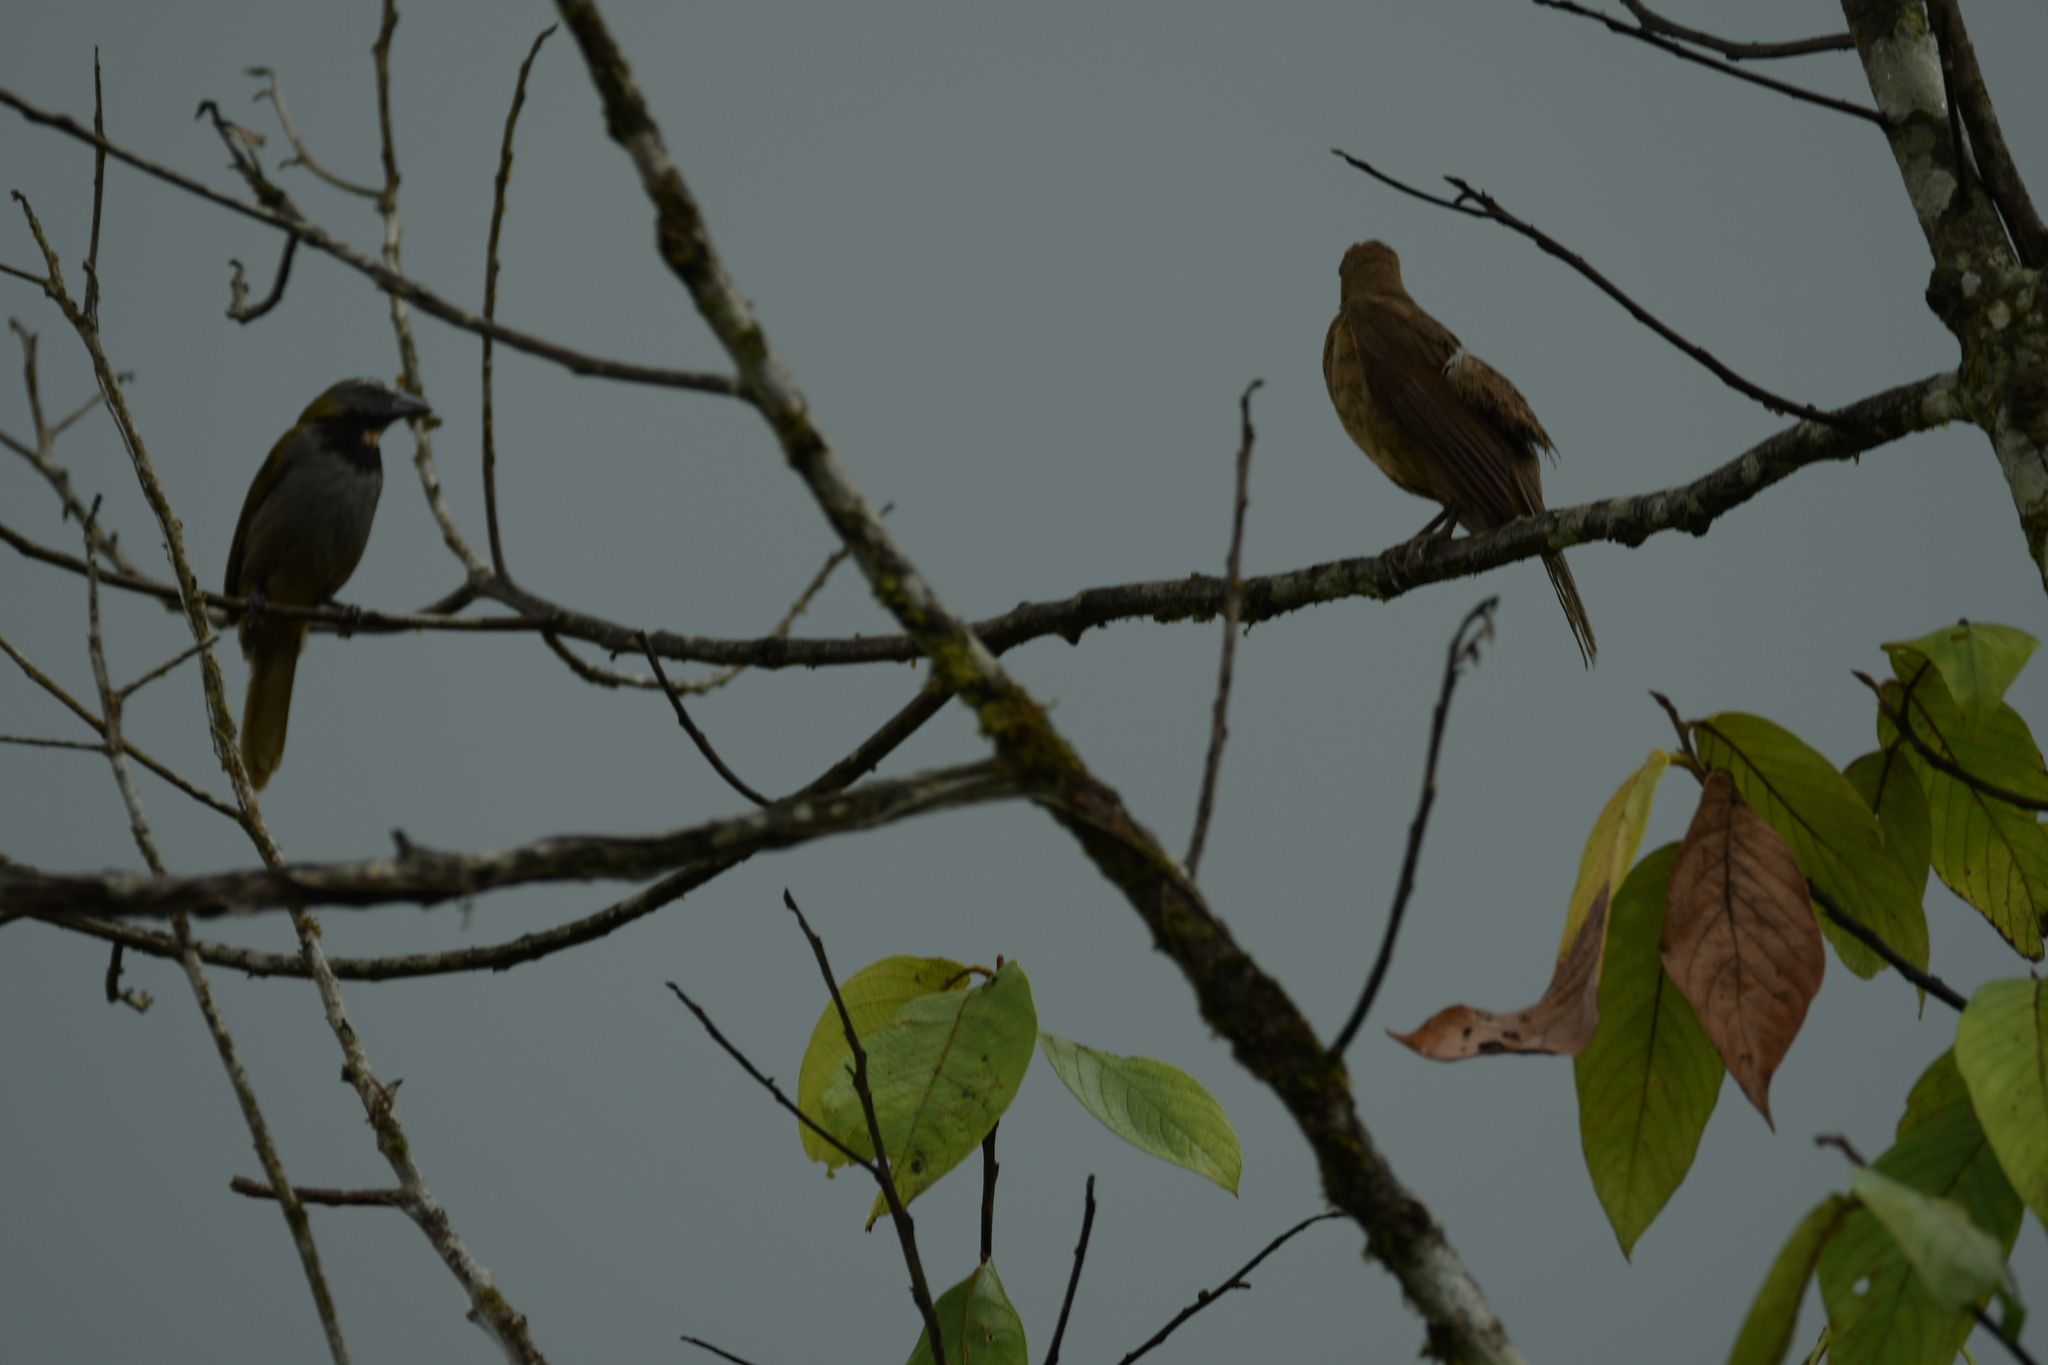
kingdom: Animalia
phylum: Chordata
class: Aves
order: Passeriformes
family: Thraupidae
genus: Saltator
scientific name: Saltator maximus
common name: Buff-throated saltator
